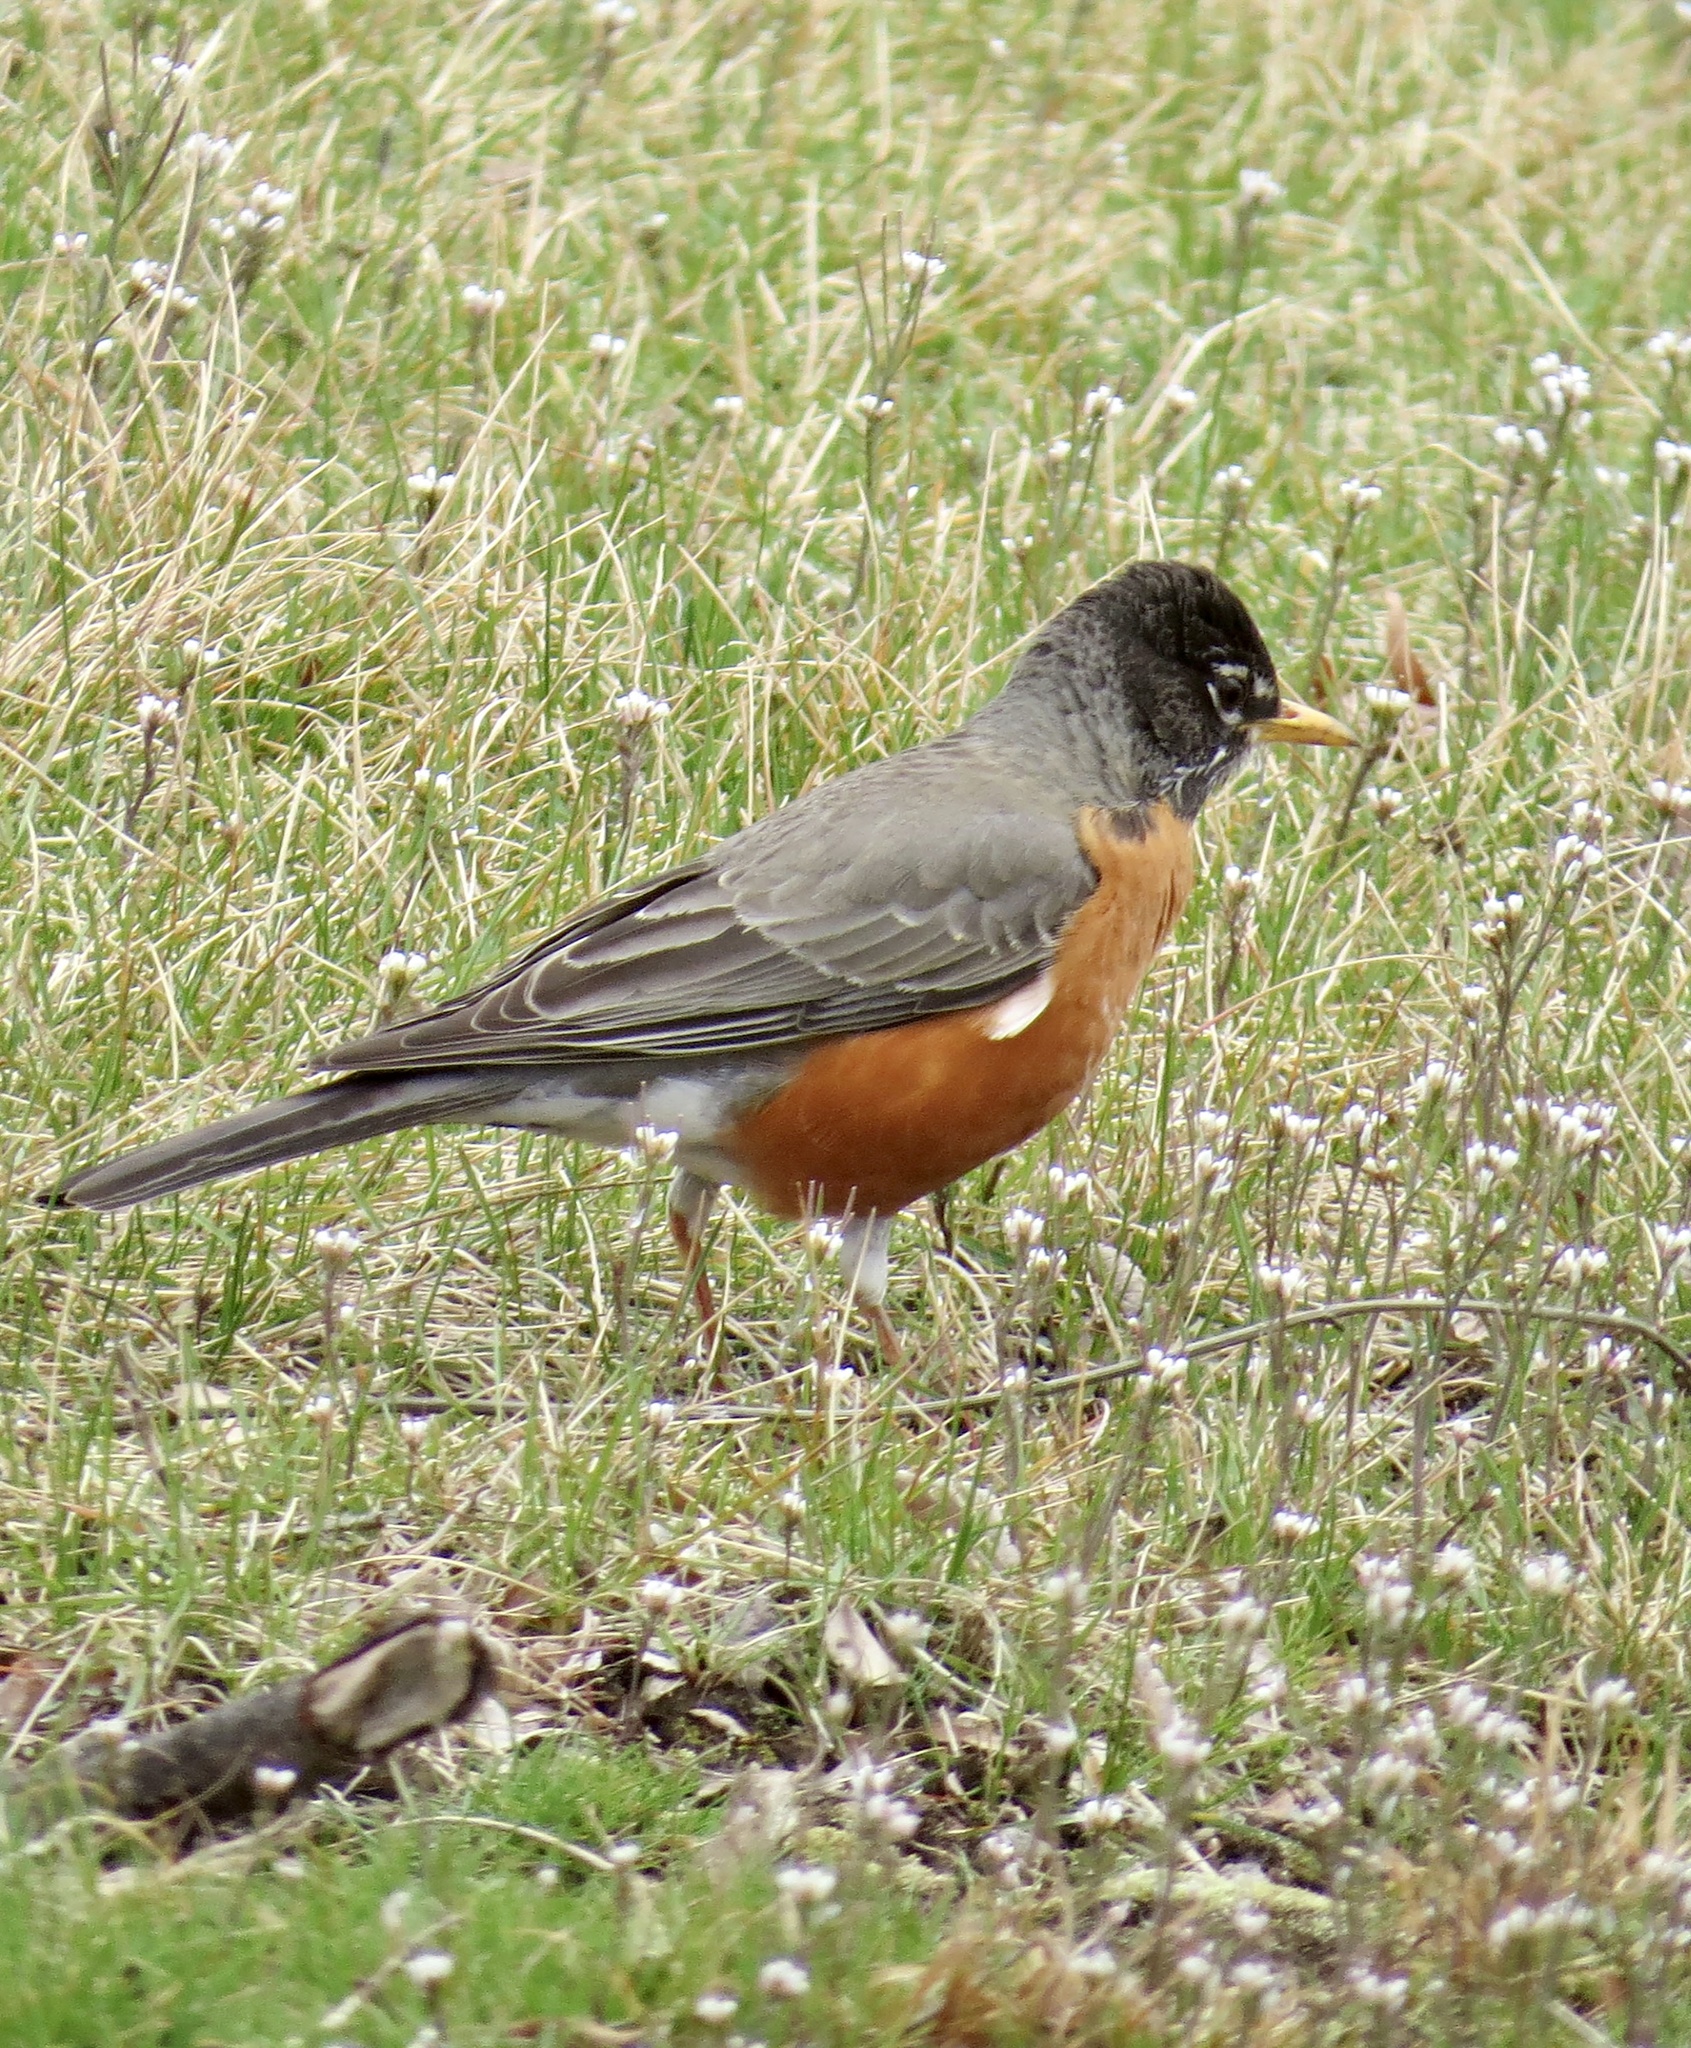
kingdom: Animalia
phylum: Chordata
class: Aves
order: Passeriformes
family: Turdidae
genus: Turdus
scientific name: Turdus migratorius
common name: American robin
